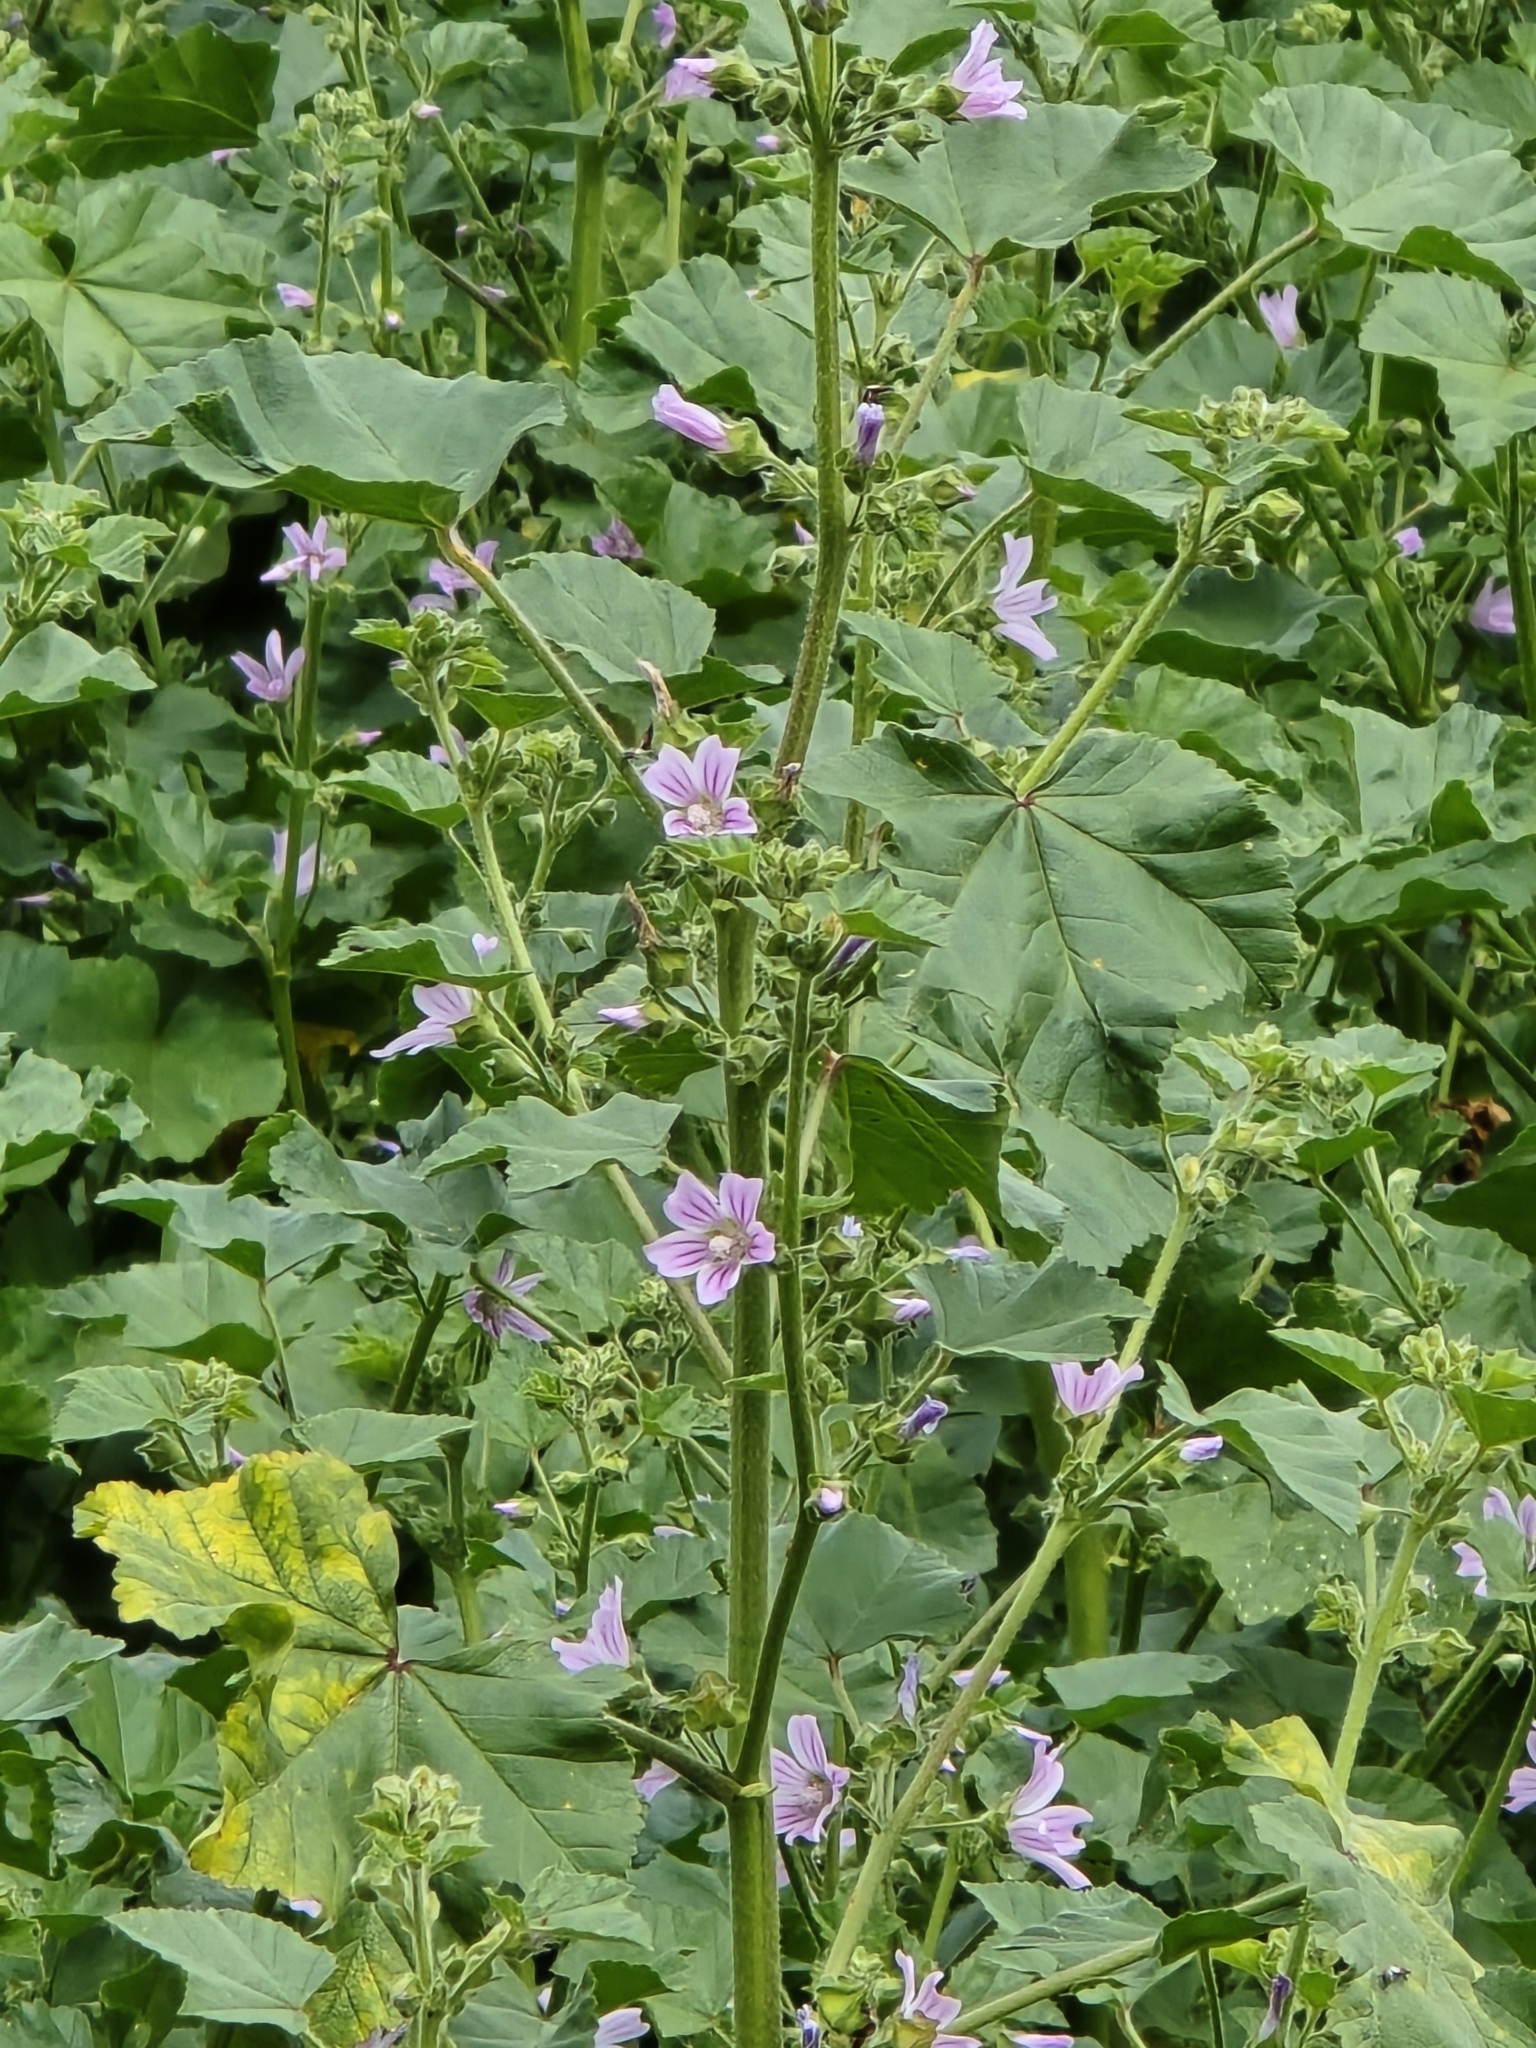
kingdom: Plantae
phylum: Tracheophyta
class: Magnoliopsida
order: Malvales
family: Malvaceae
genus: Malva
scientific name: Malva sylvestris
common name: Common mallow
